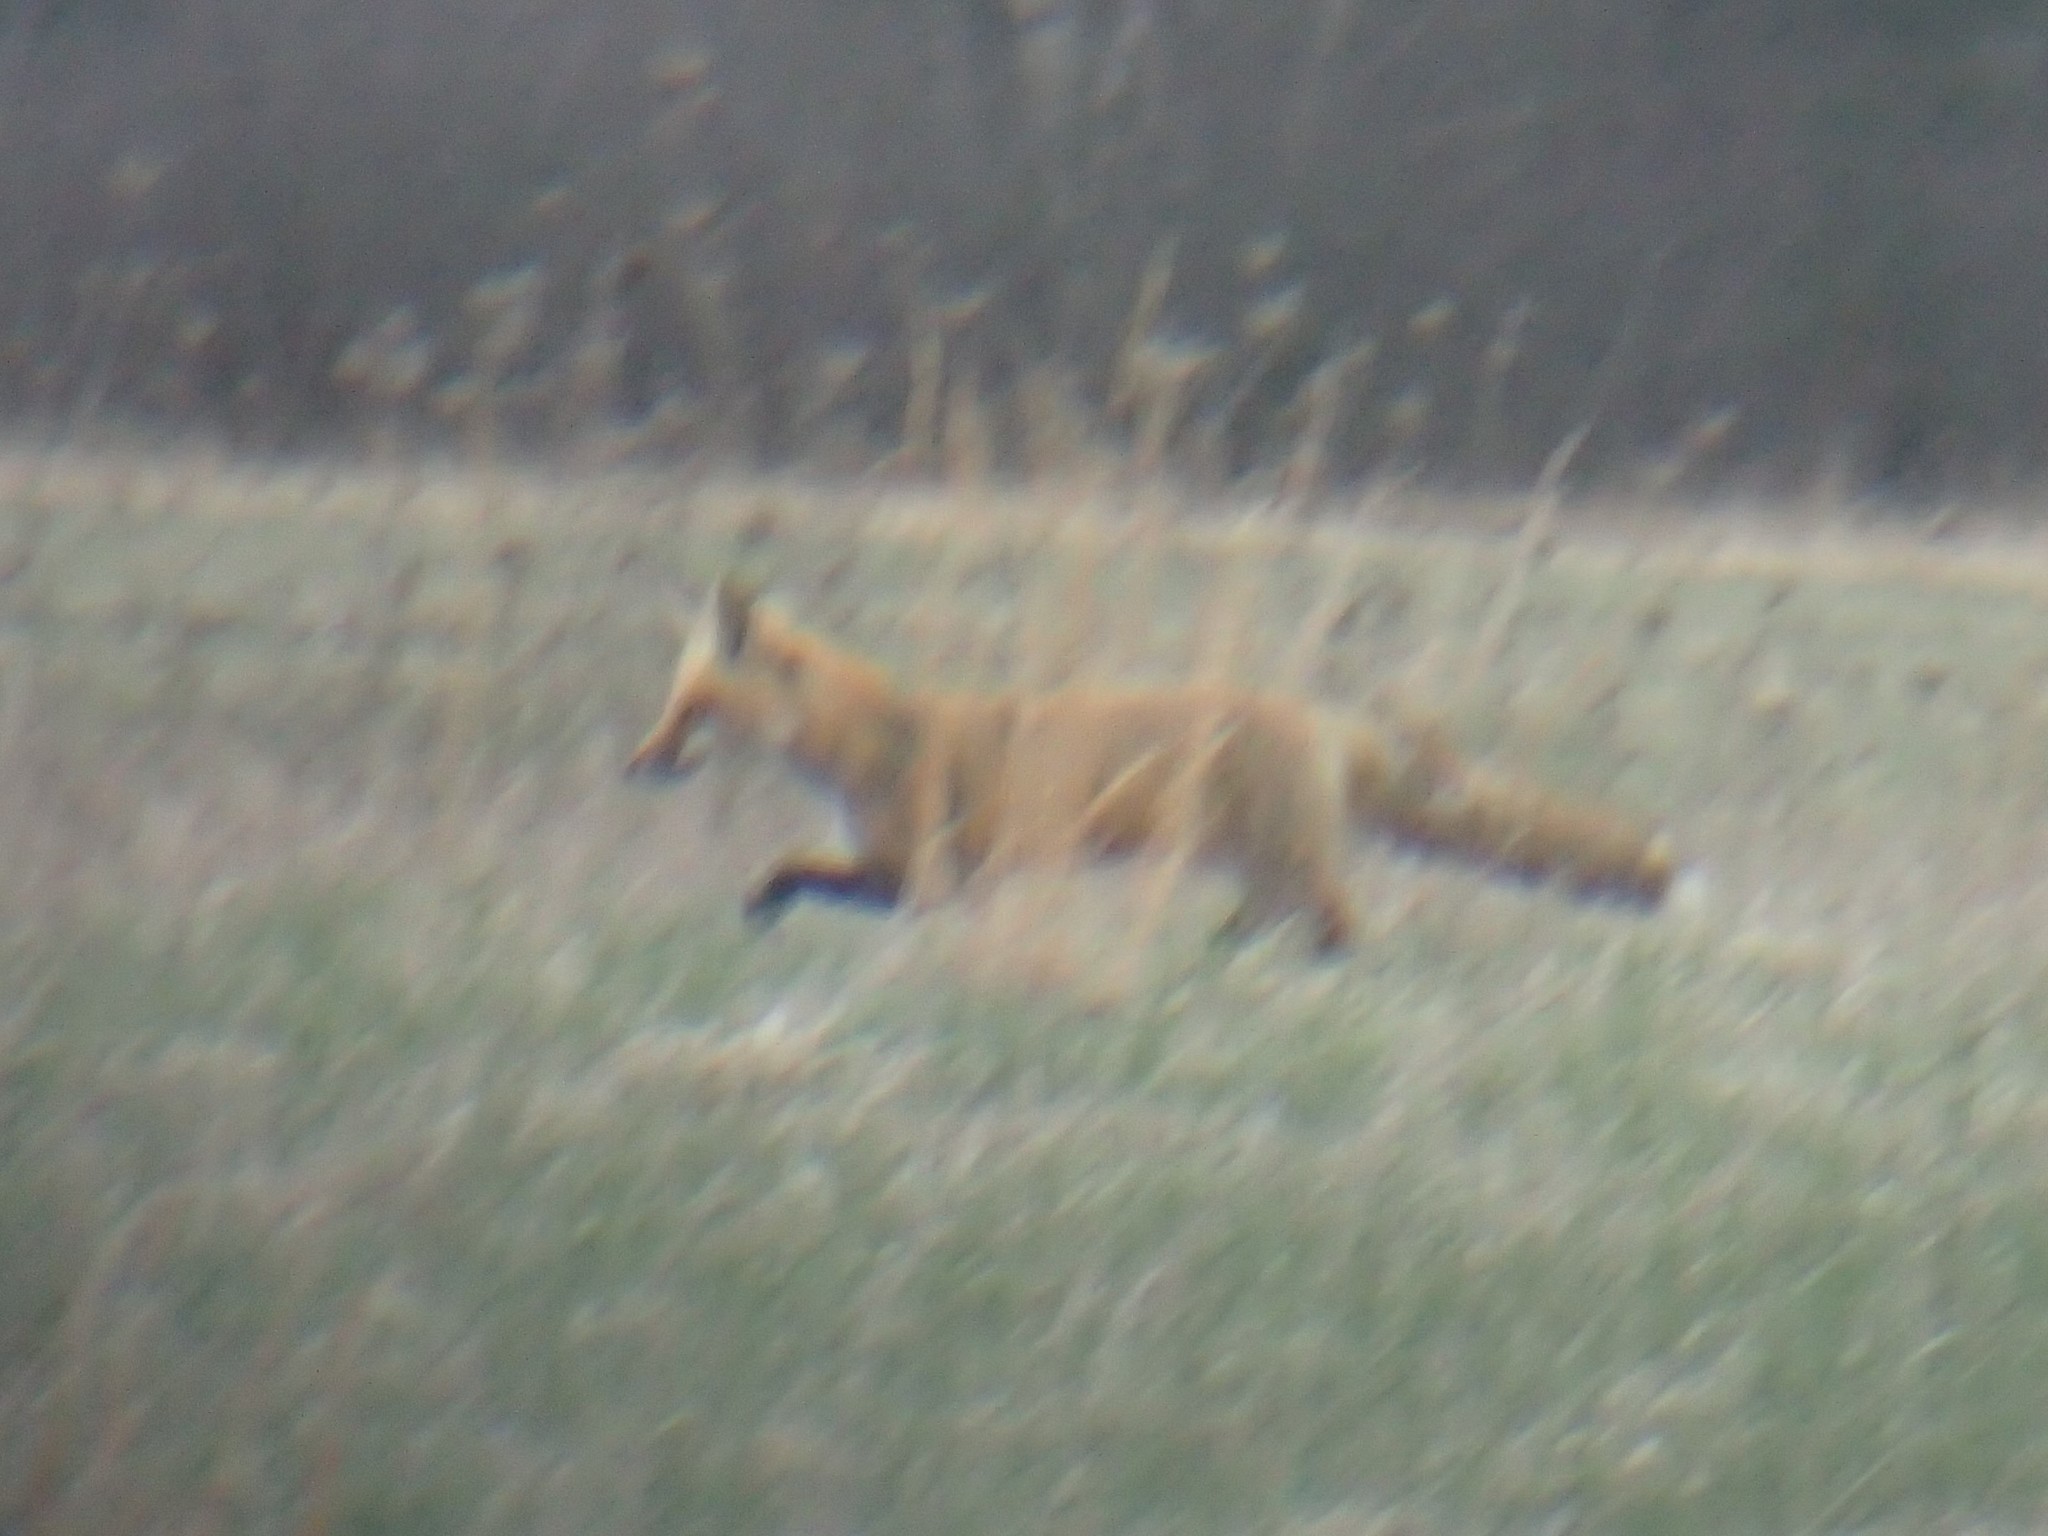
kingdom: Animalia
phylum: Chordata
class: Mammalia
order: Carnivora
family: Canidae
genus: Vulpes
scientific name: Vulpes vulpes
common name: Red fox
